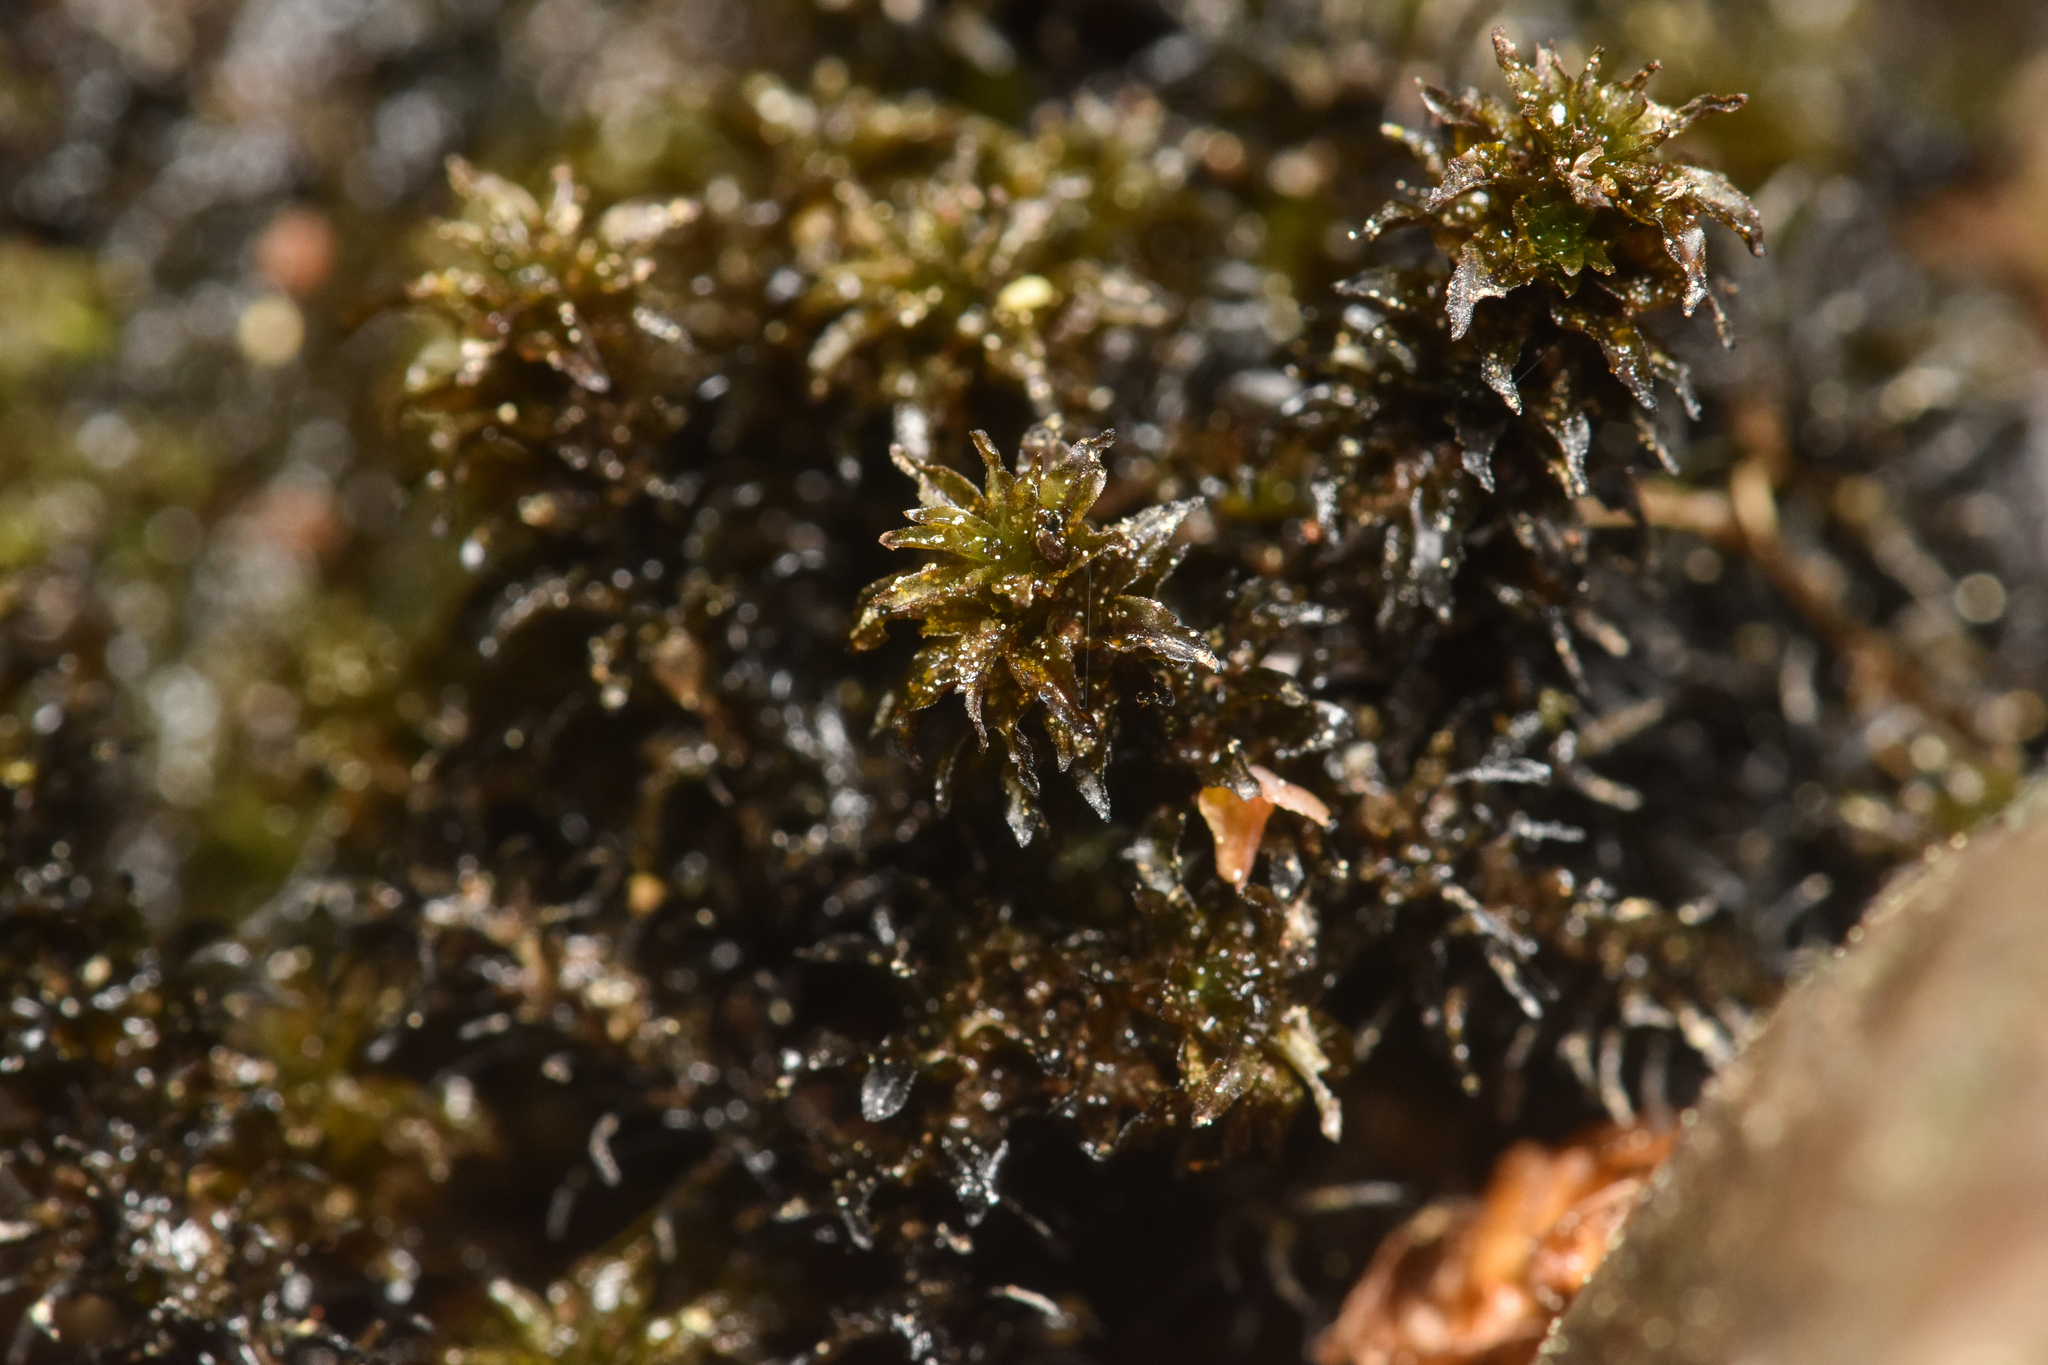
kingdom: Plantae
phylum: Bryophyta
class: Bryopsida
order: Scouleriales
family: Scouleriaceae
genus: Scouleria
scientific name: Scouleria aquatica
